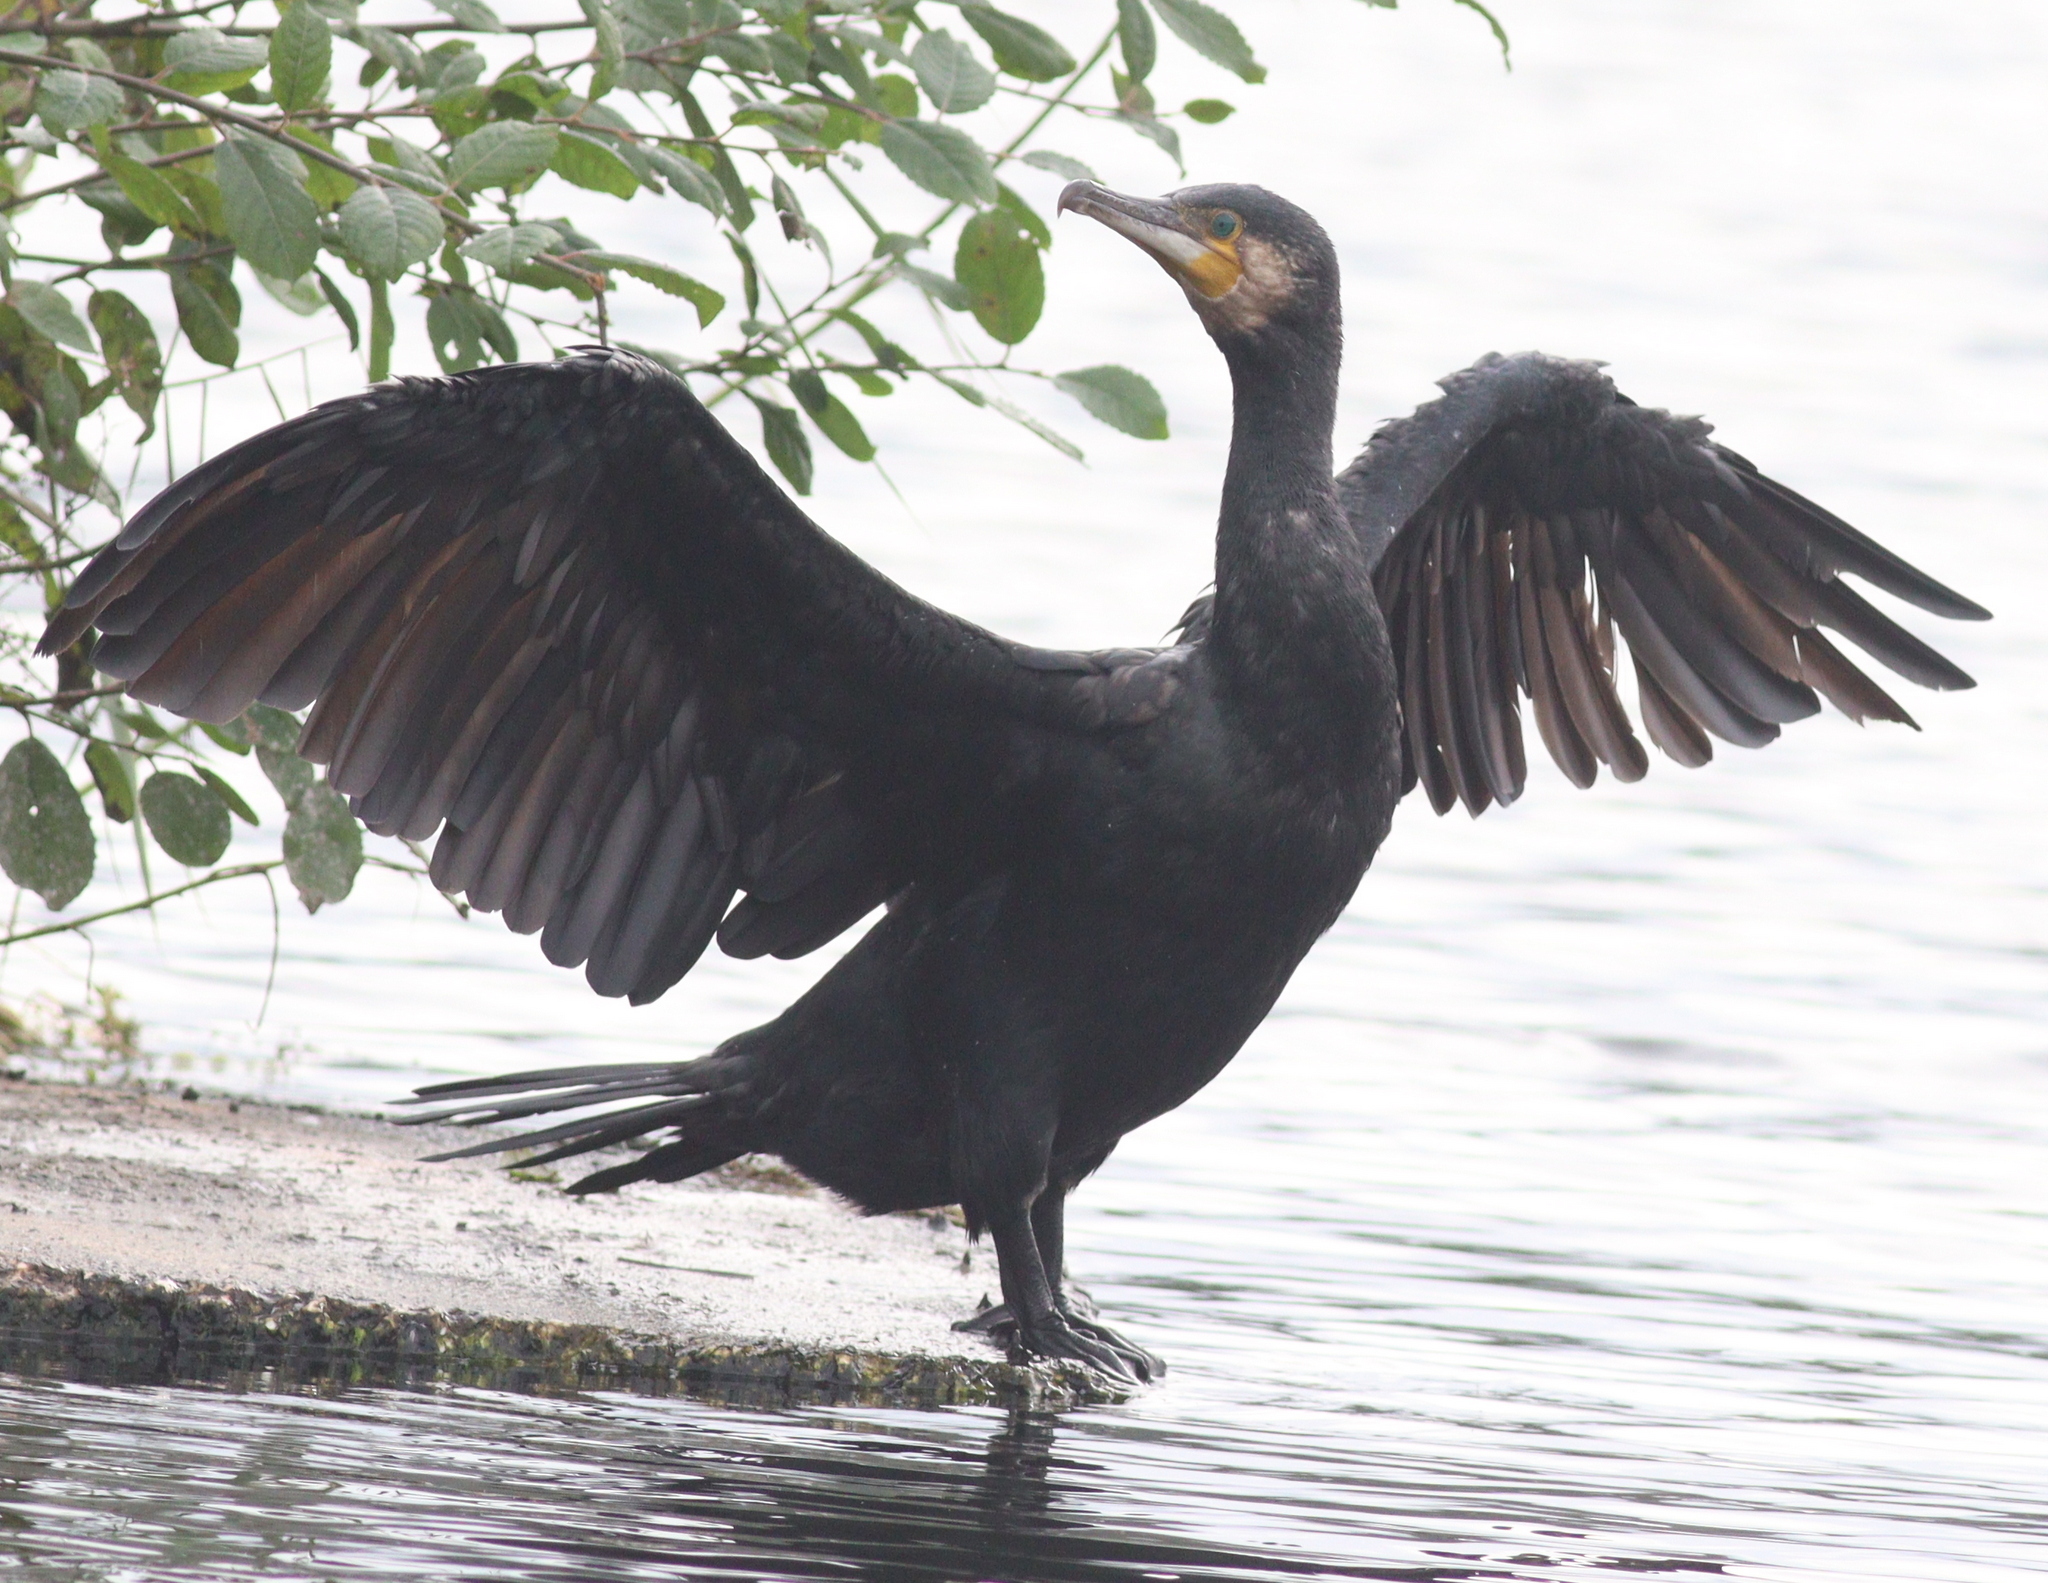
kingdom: Animalia
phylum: Chordata
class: Aves
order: Suliformes
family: Phalacrocoracidae
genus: Phalacrocorax
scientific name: Phalacrocorax carbo
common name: Great cormorant
